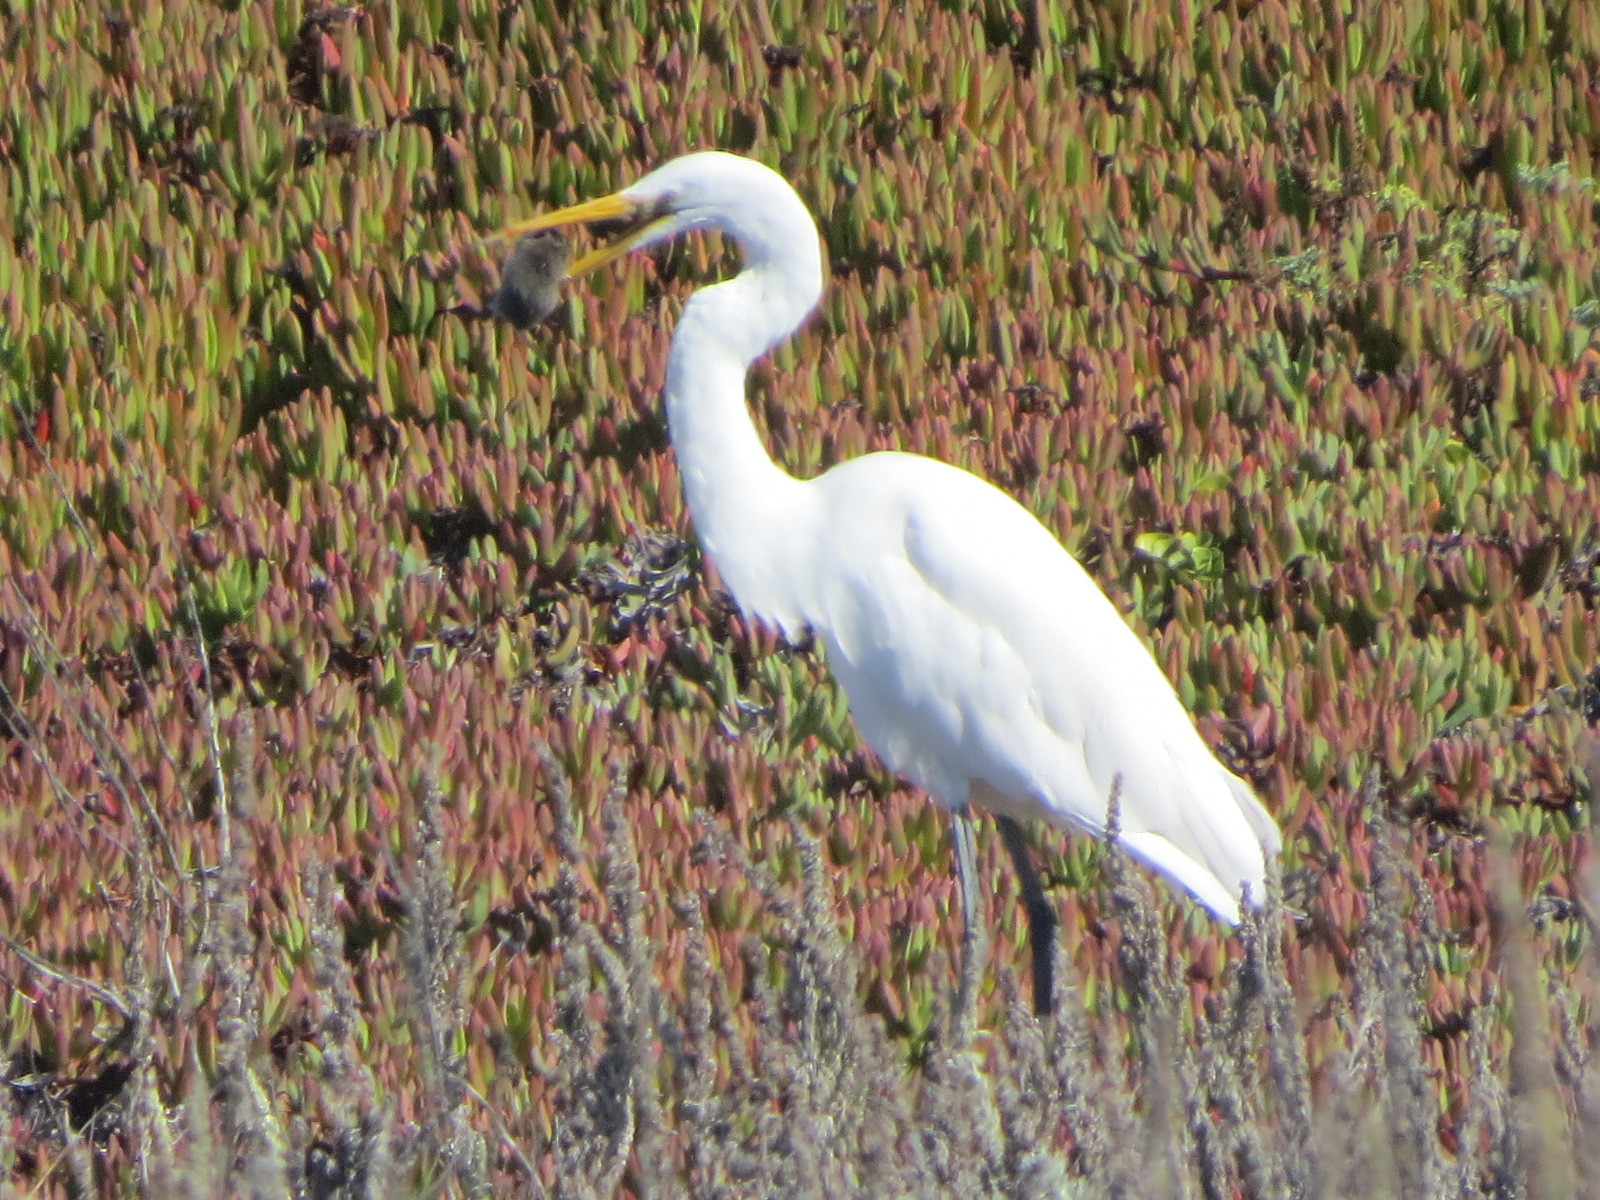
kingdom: Animalia
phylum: Chordata
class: Aves
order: Pelecaniformes
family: Ardeidae
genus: Ardea
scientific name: Ardea alba
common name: Great egret
